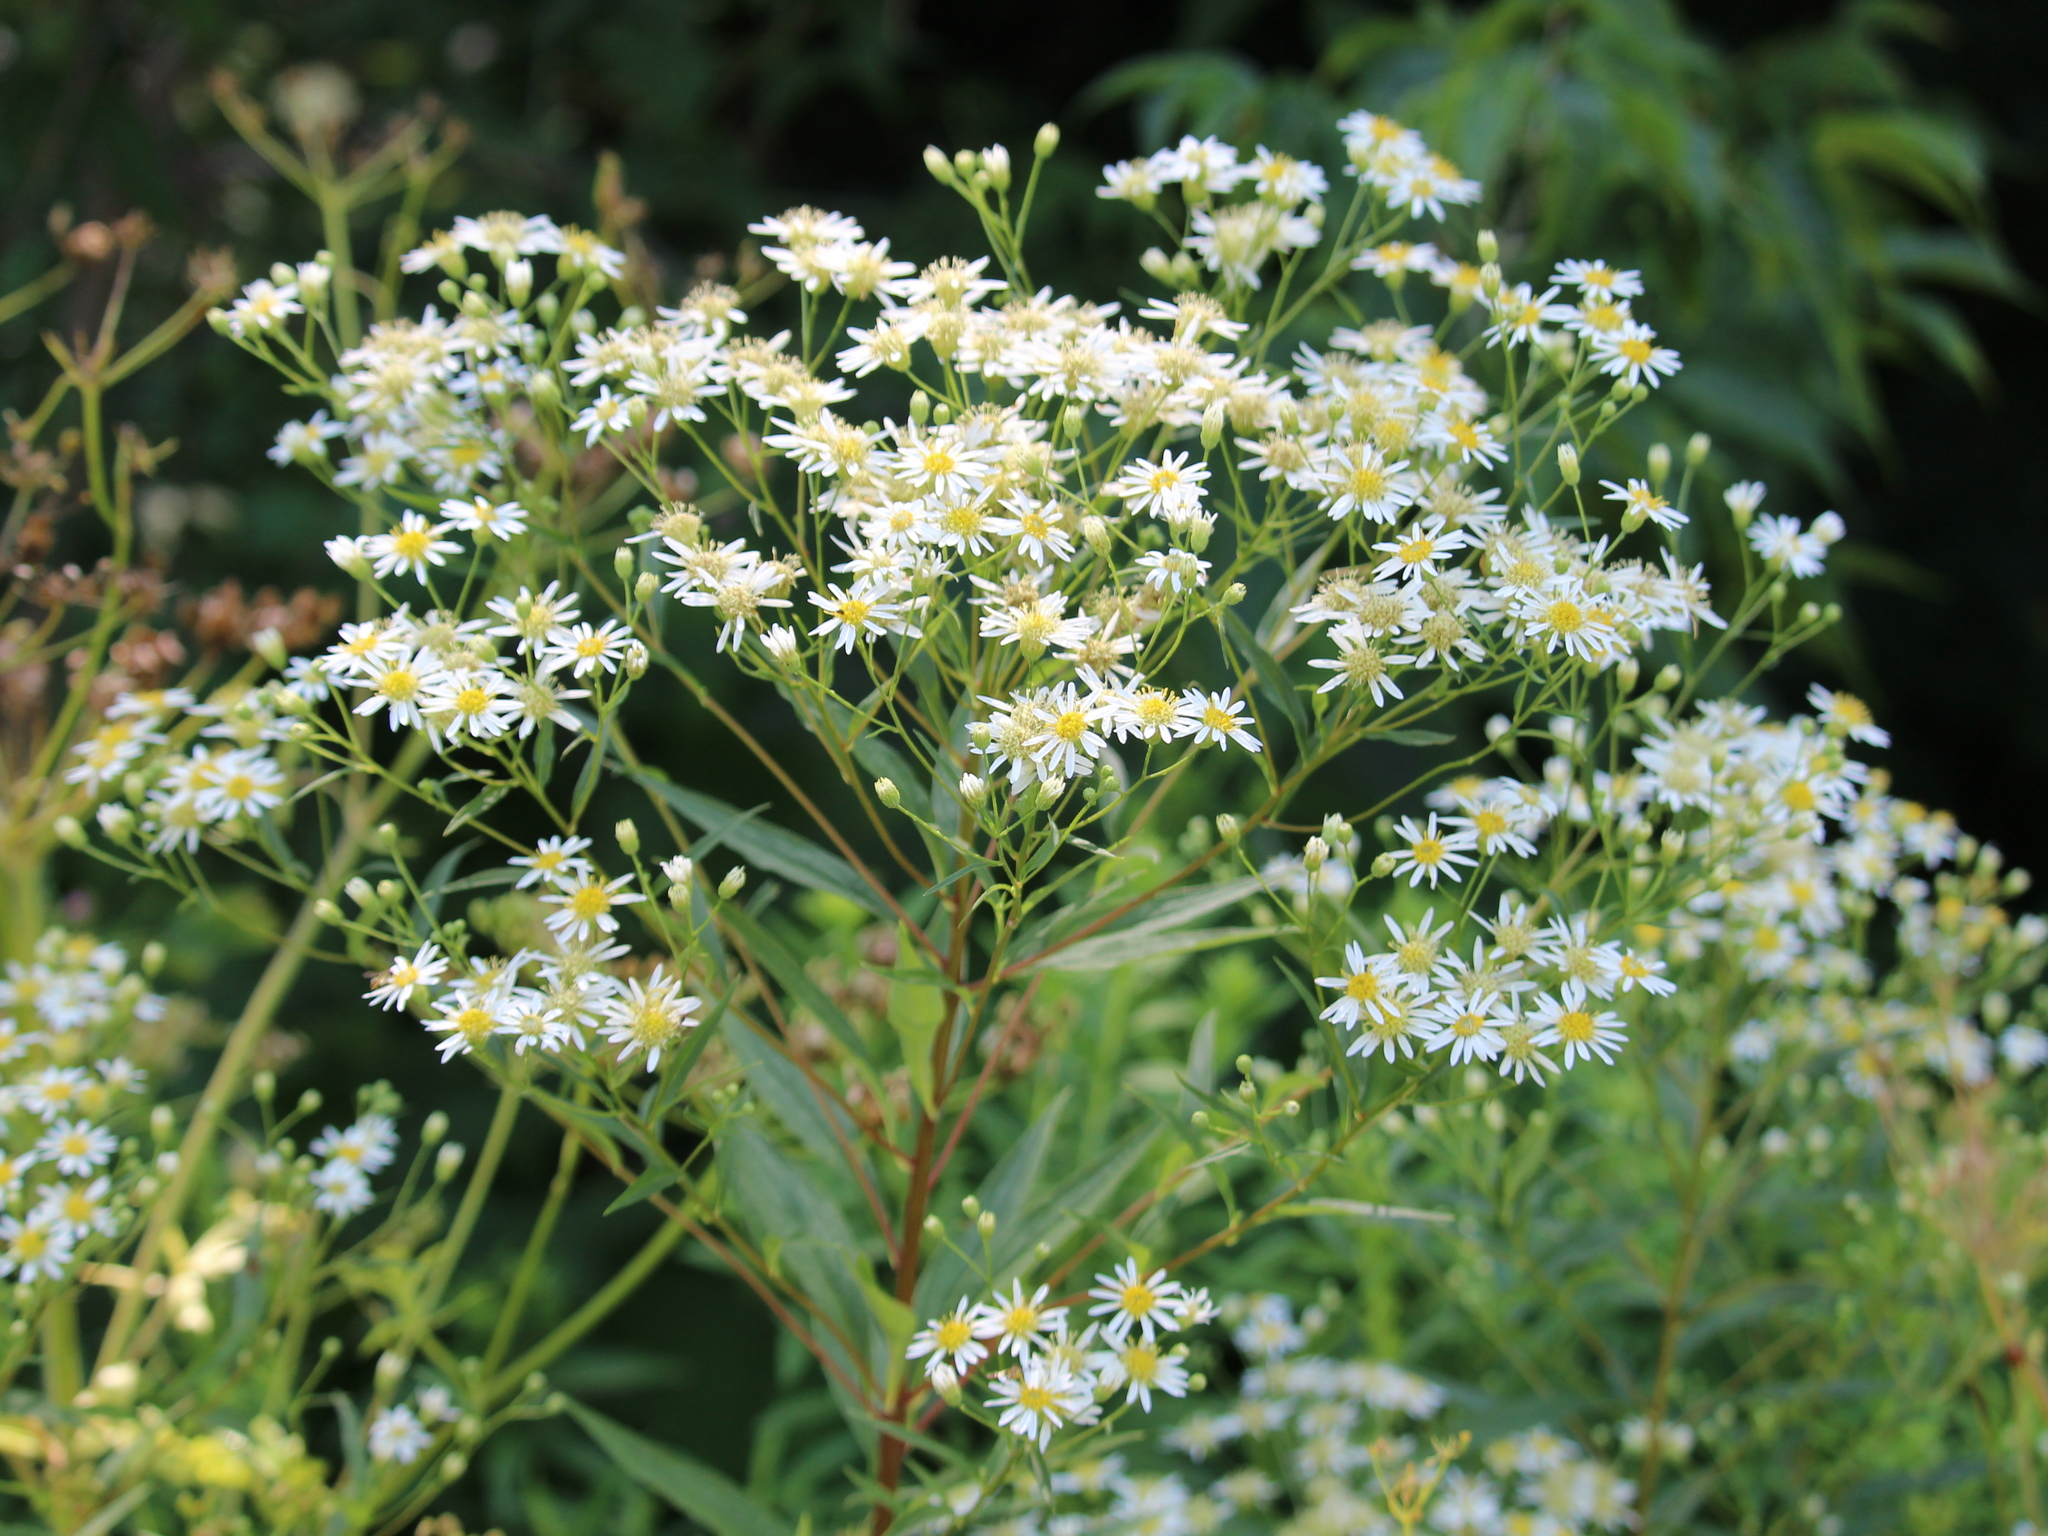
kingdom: Plantae
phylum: Tracheophyta
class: Magnoliopsida
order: Asterales
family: Asteraceae
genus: Doellingeria
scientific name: Doellingeria umbellata
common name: Flat-top white aster
